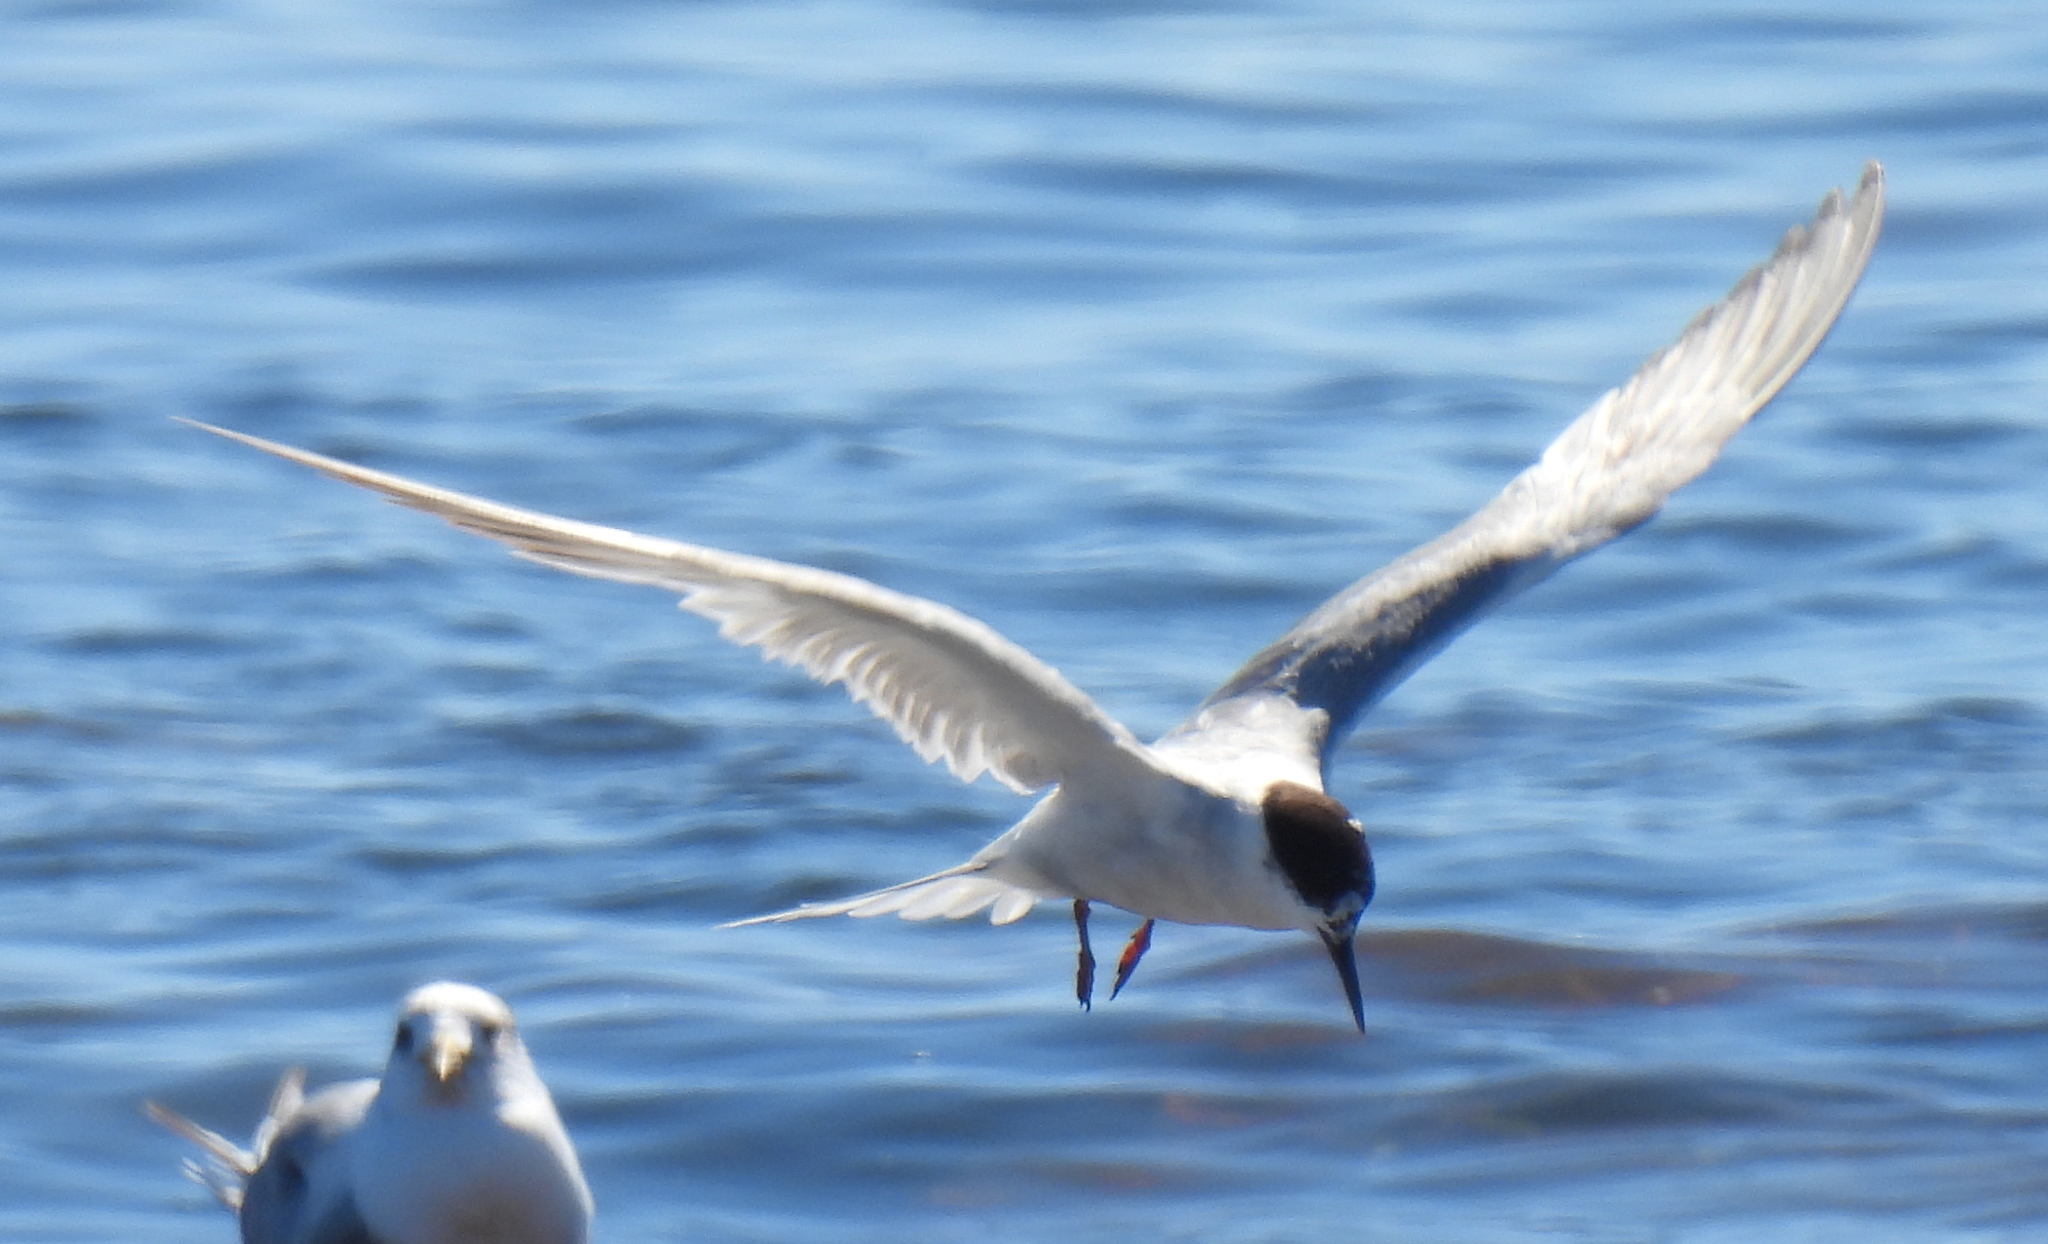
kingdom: Animalia
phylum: Chordata
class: Aves
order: Charadriiformes
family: Laridae
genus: Sterna
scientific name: Sterna hirundo
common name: Common tern
